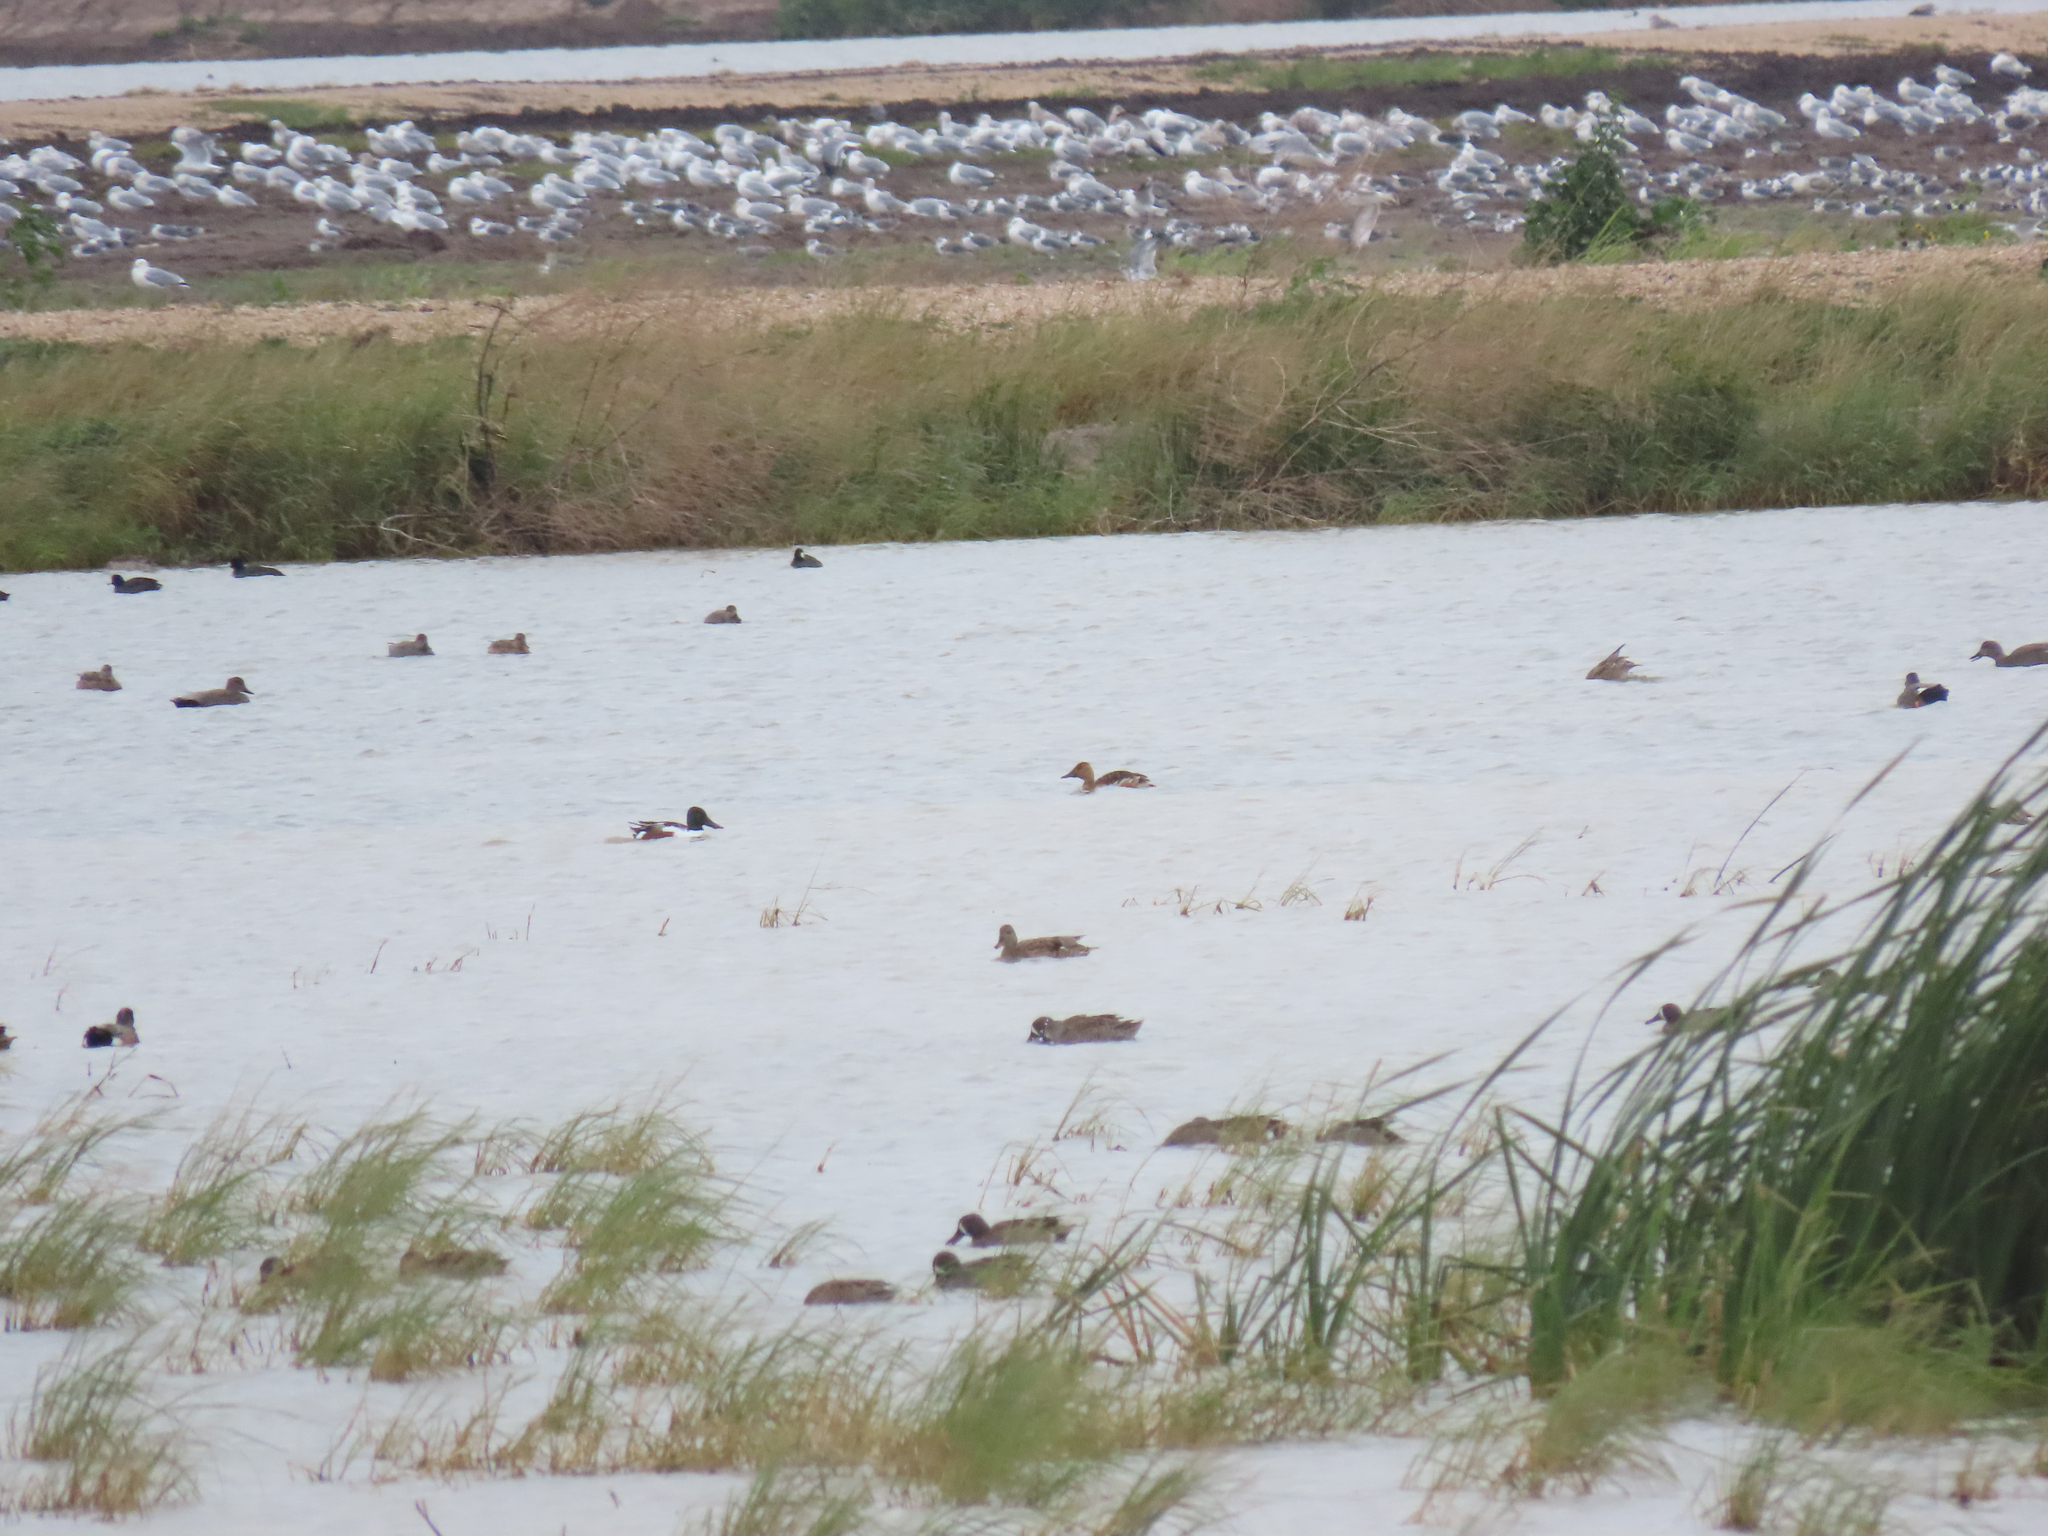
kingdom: Animalia
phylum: Chordata
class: Aves
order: Anseriformes
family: Anatidae
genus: Dendrocygna
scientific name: Dendrocygna bicolor
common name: Fulvous whistling duck
